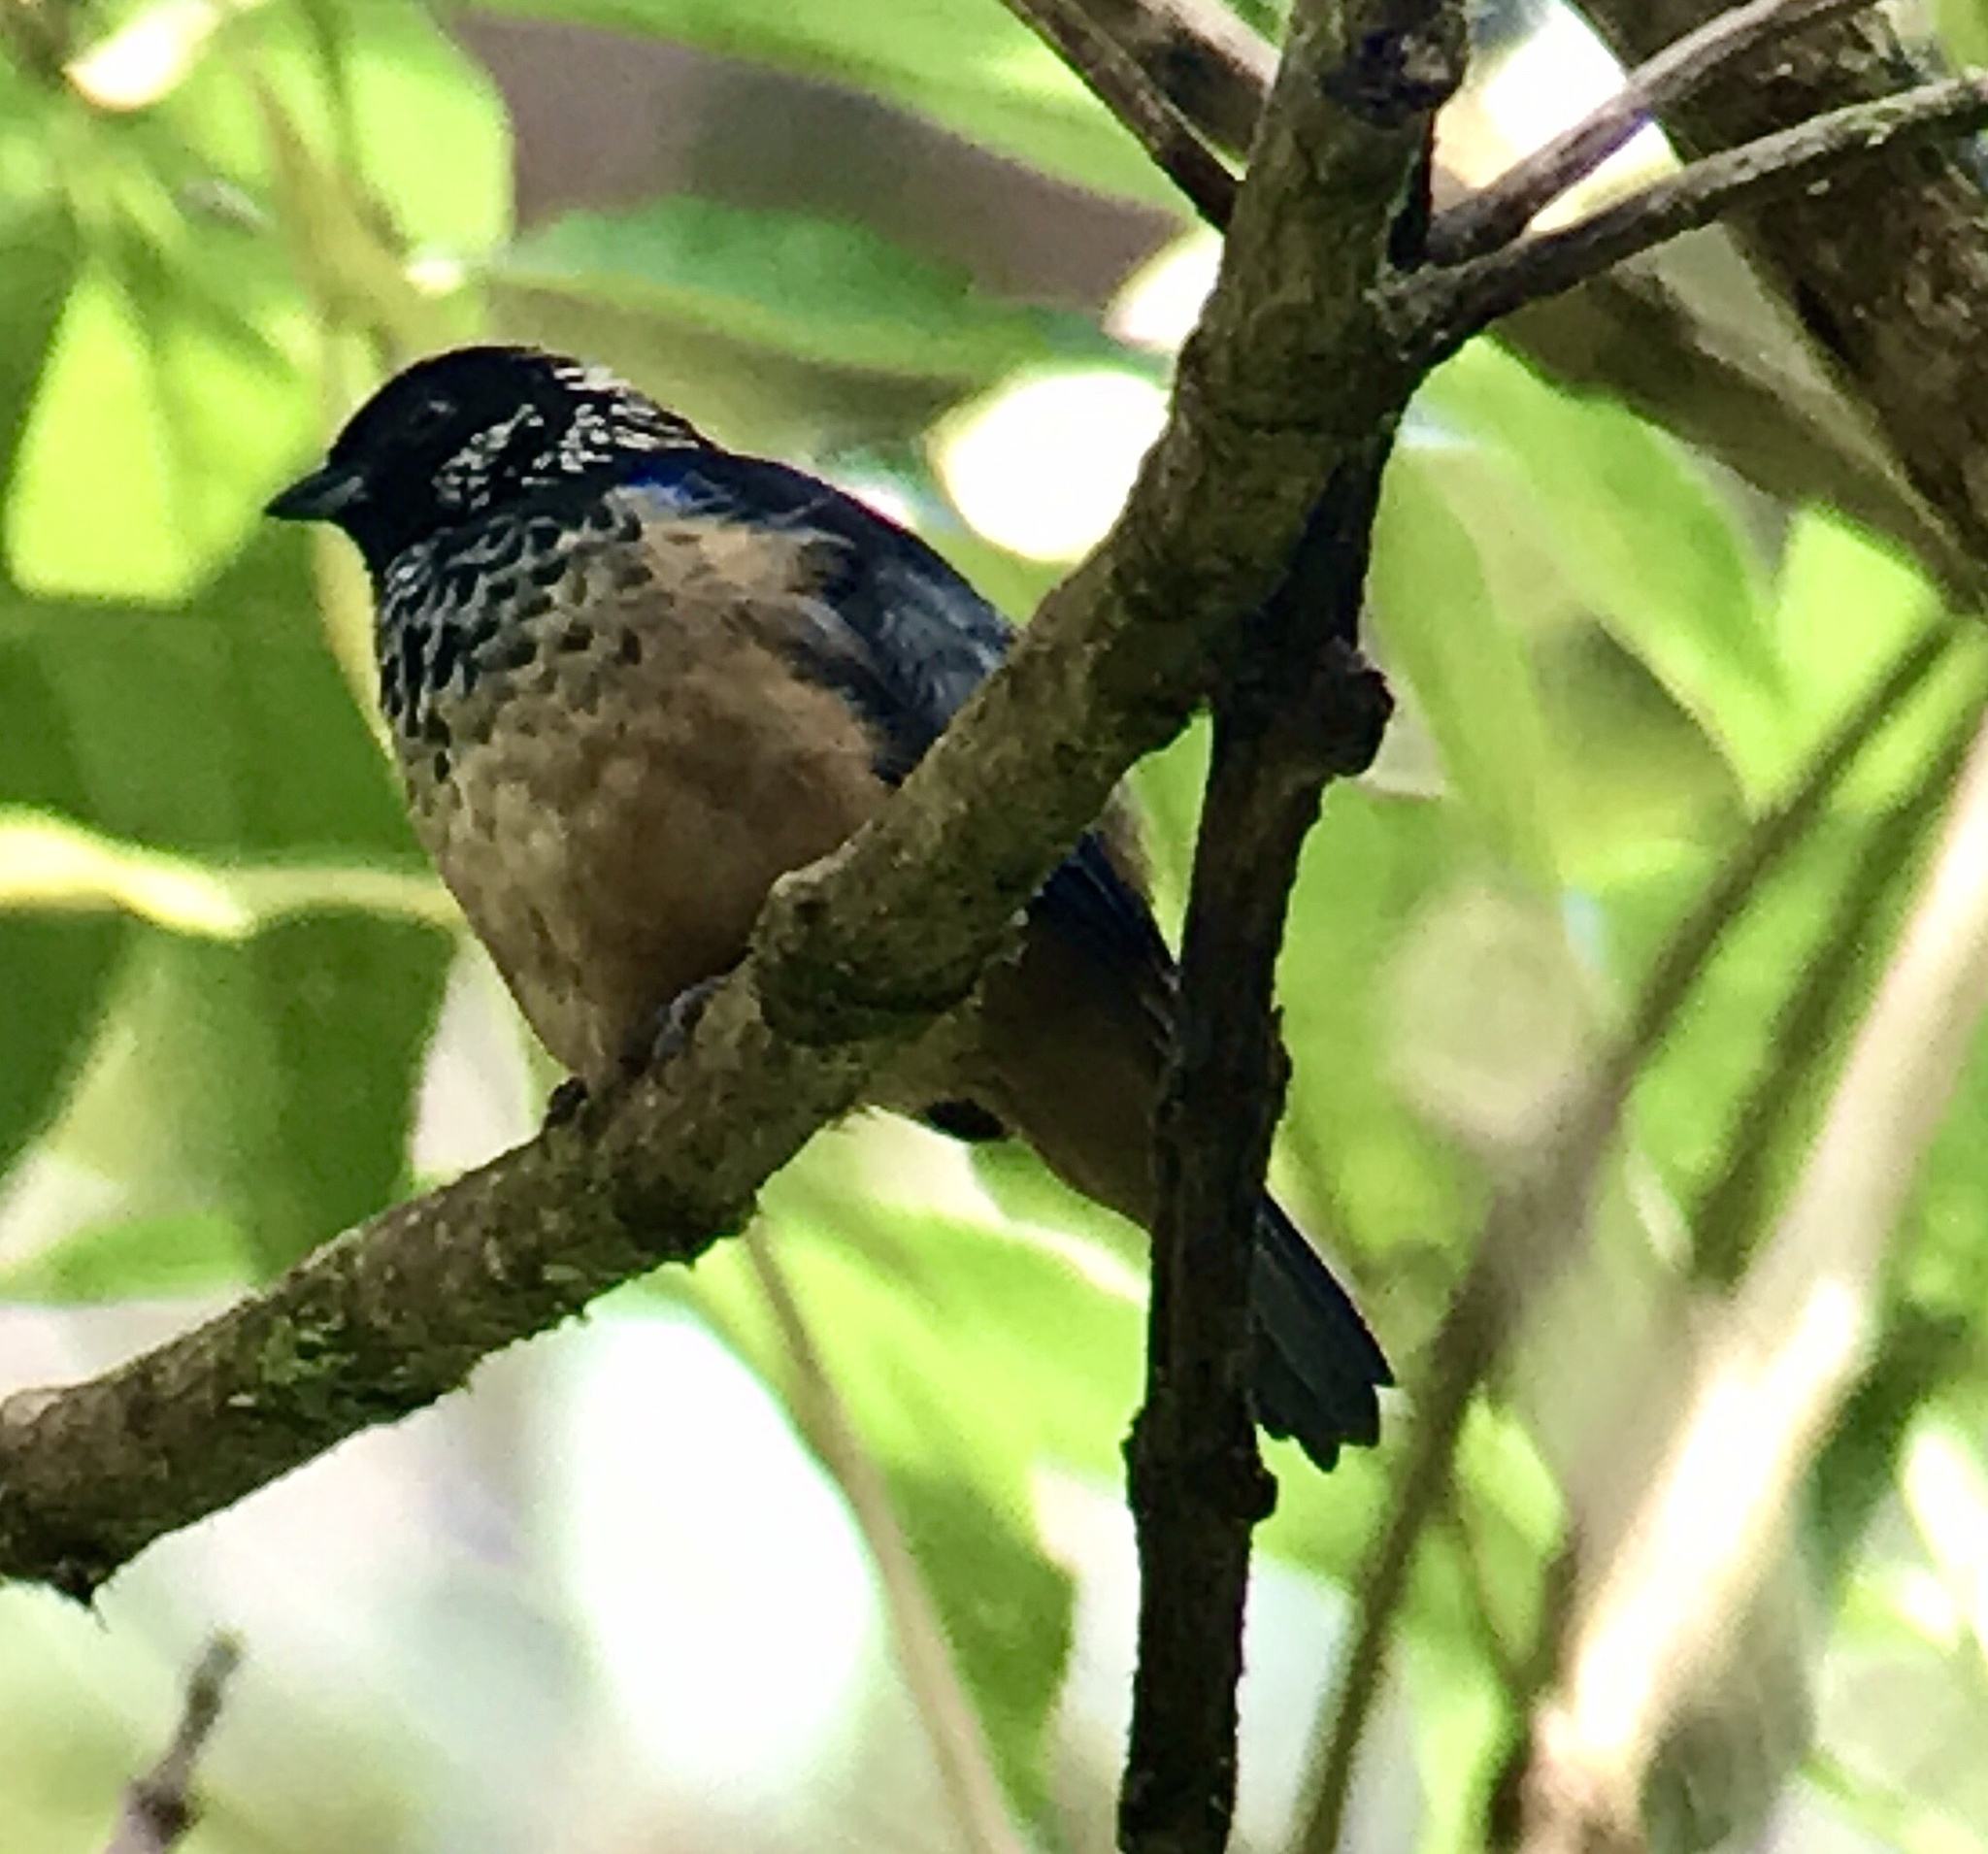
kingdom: Animalia
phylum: Chordata
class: Aves
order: Passeriformes
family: Thraupidae
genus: Tangara
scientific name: Tangara dowii
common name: Spangle-cheeked tanager
